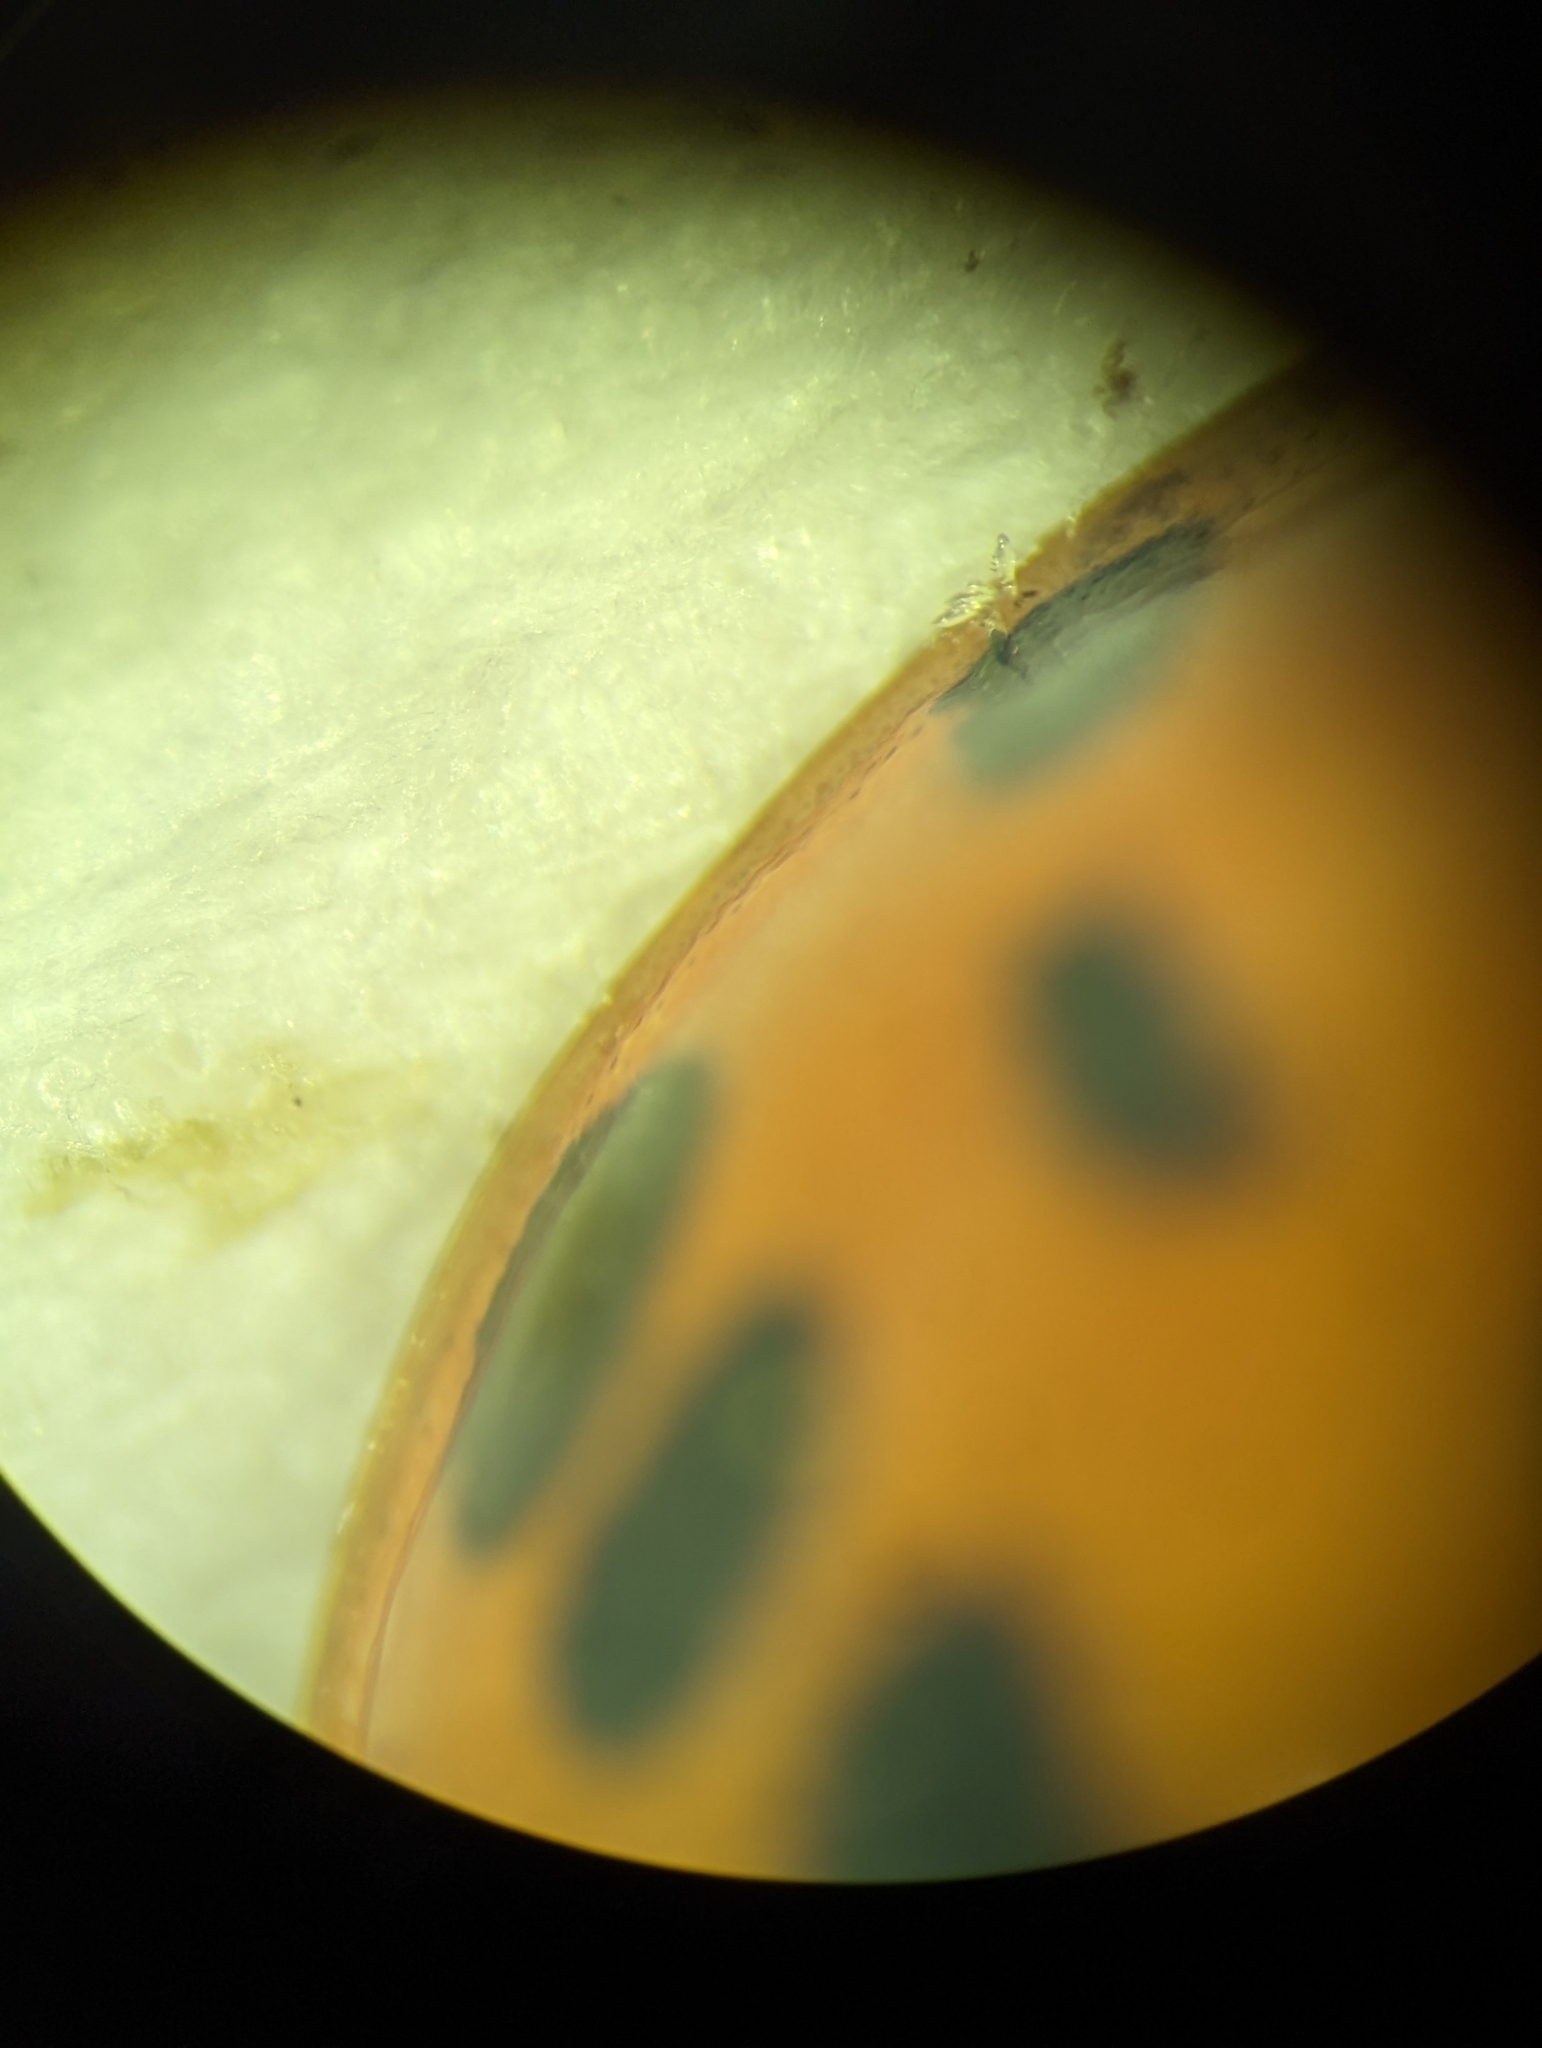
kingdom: Fungi
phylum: Ascomycota
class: Laboulbeniomycetes
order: Laboulbeniales
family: Laboulbeniaceae
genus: Hesperomyces
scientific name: Hesperomyces harmoniae
